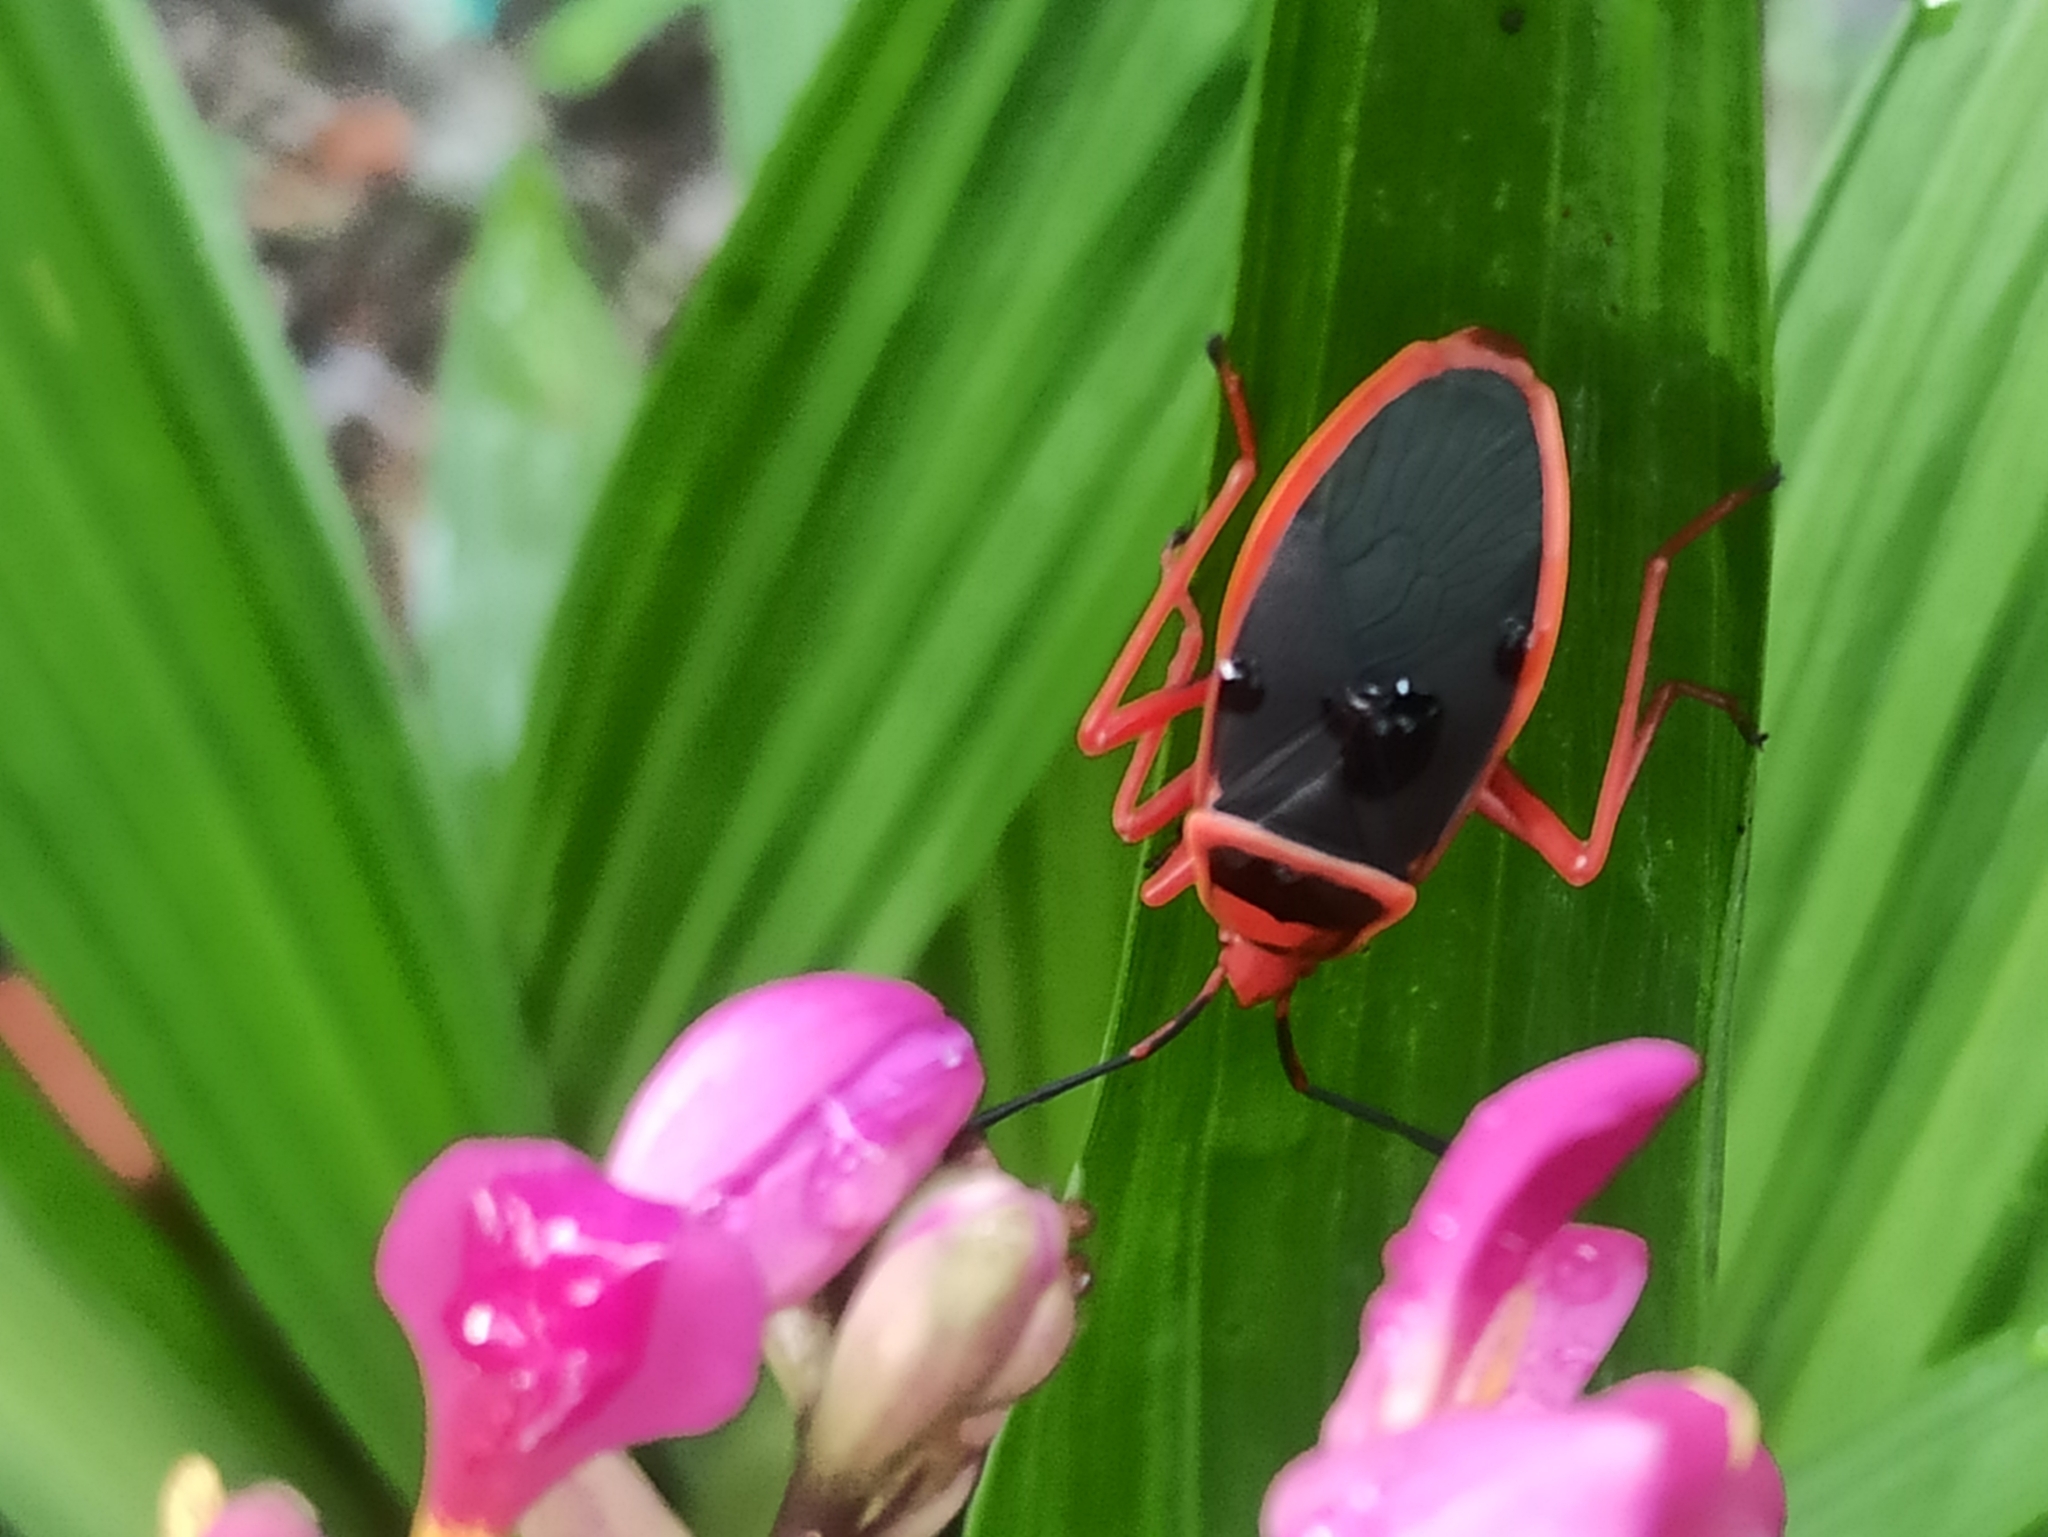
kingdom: Animalia
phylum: Arthropoda
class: Insecta
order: Hemiptera
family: Pyrrhocoridae
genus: Probergrothius
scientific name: Probergrothius
